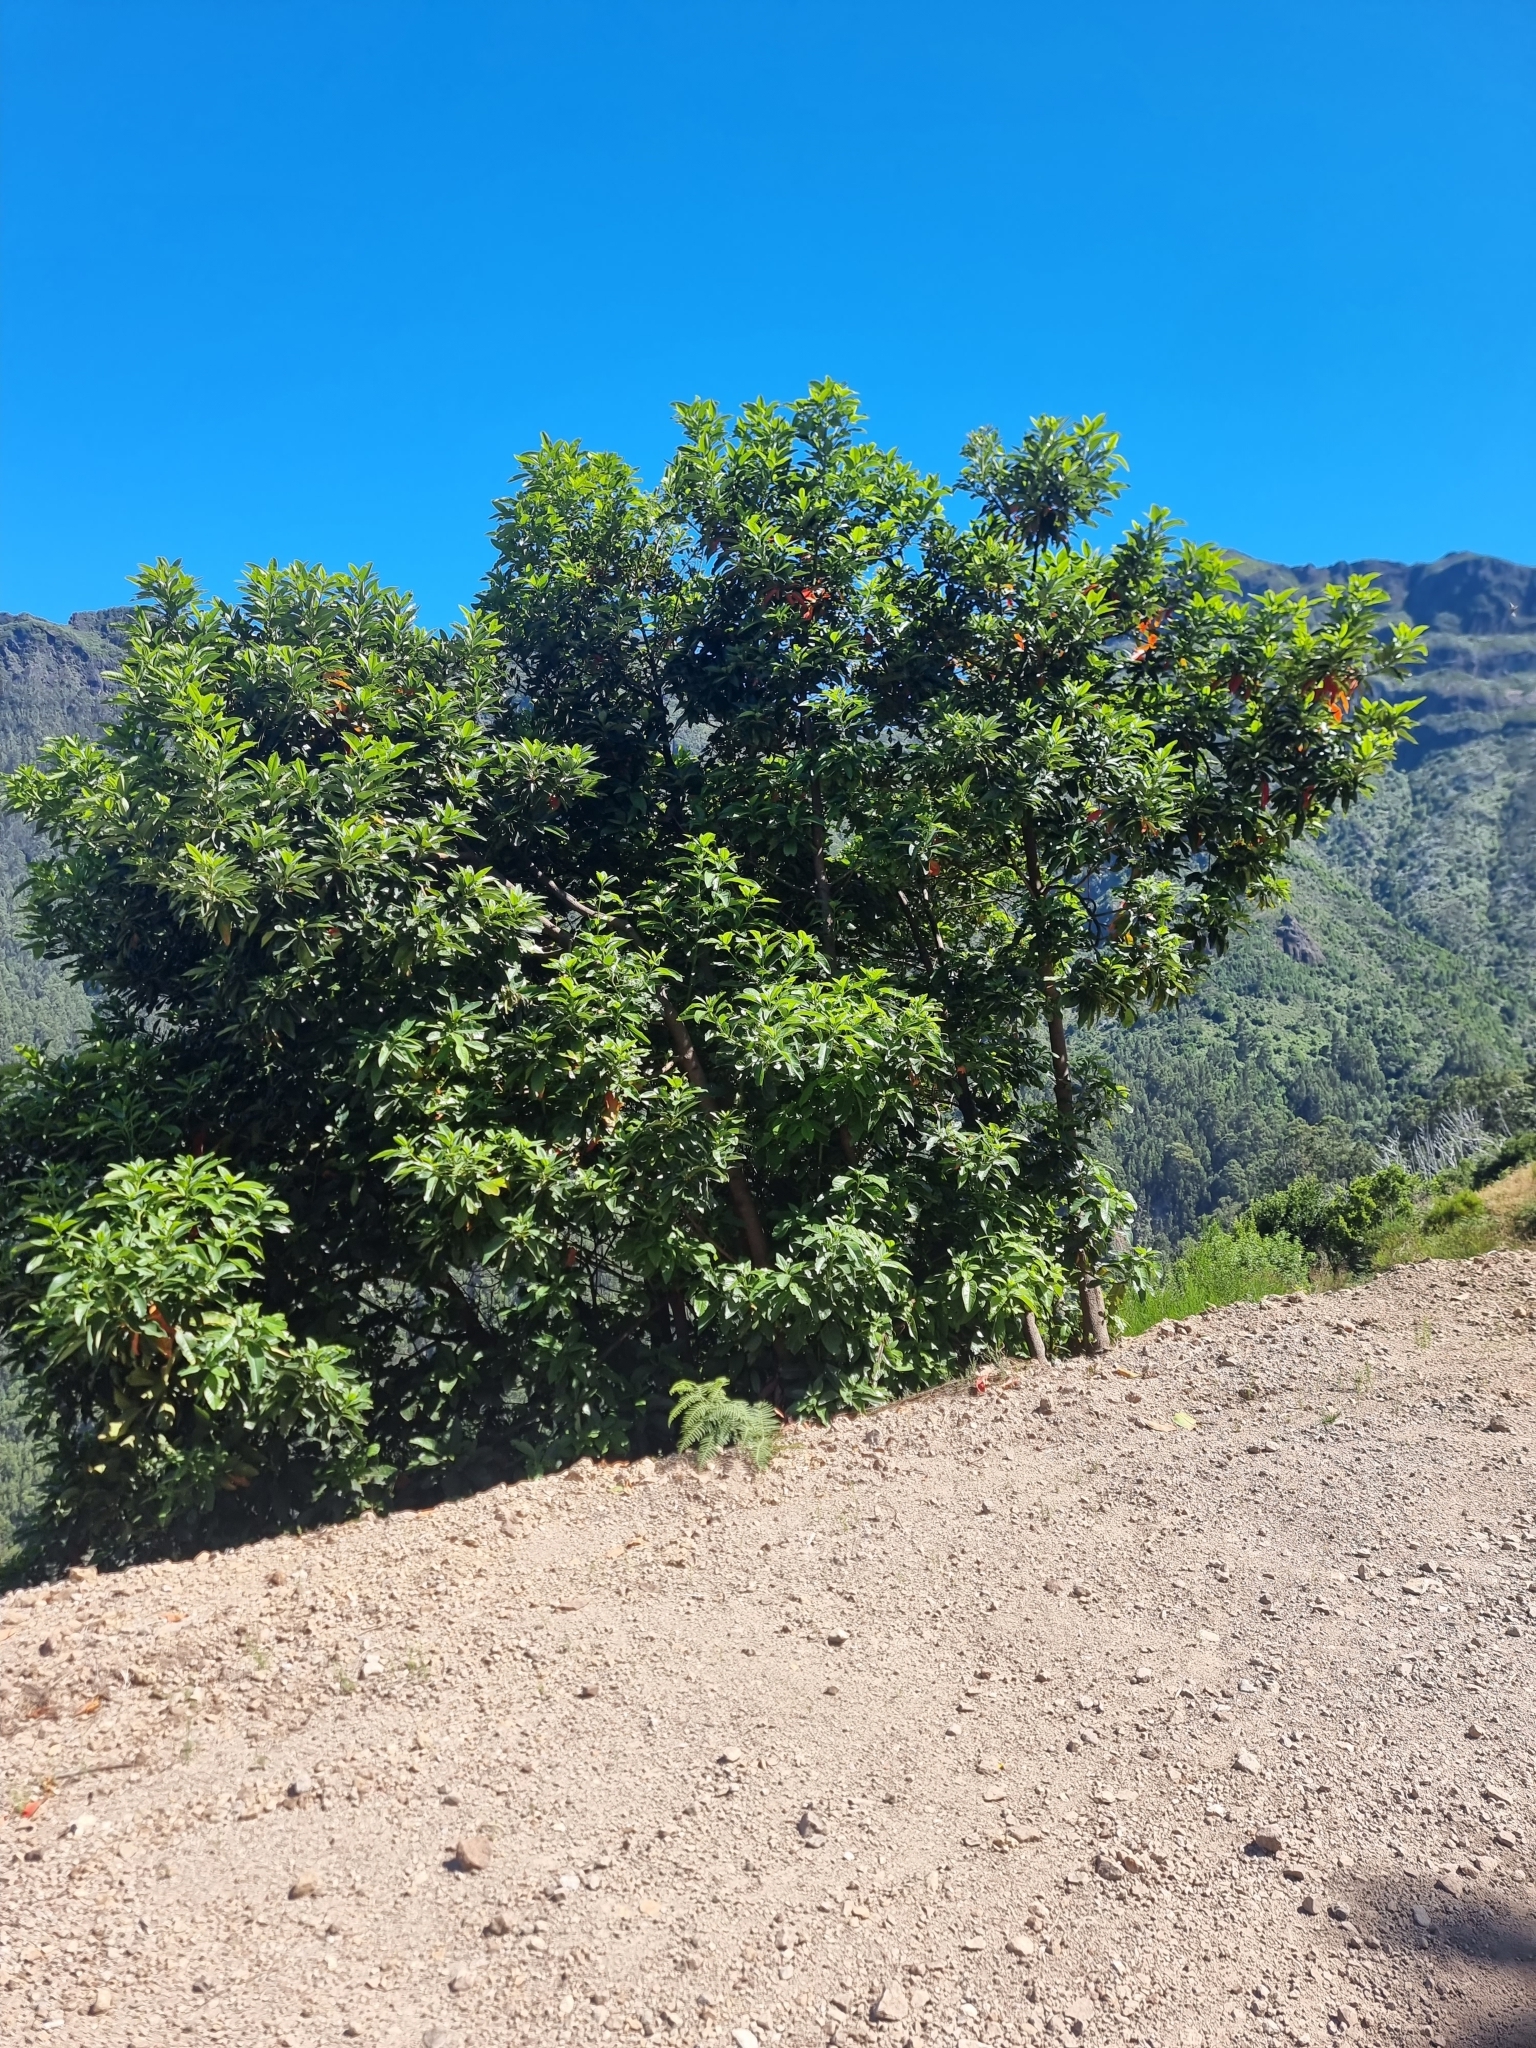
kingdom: Plantae
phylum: Tracheophyta
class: Magnoliopsida
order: Laurales
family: Lauraceae
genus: Persea
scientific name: Persea indica
